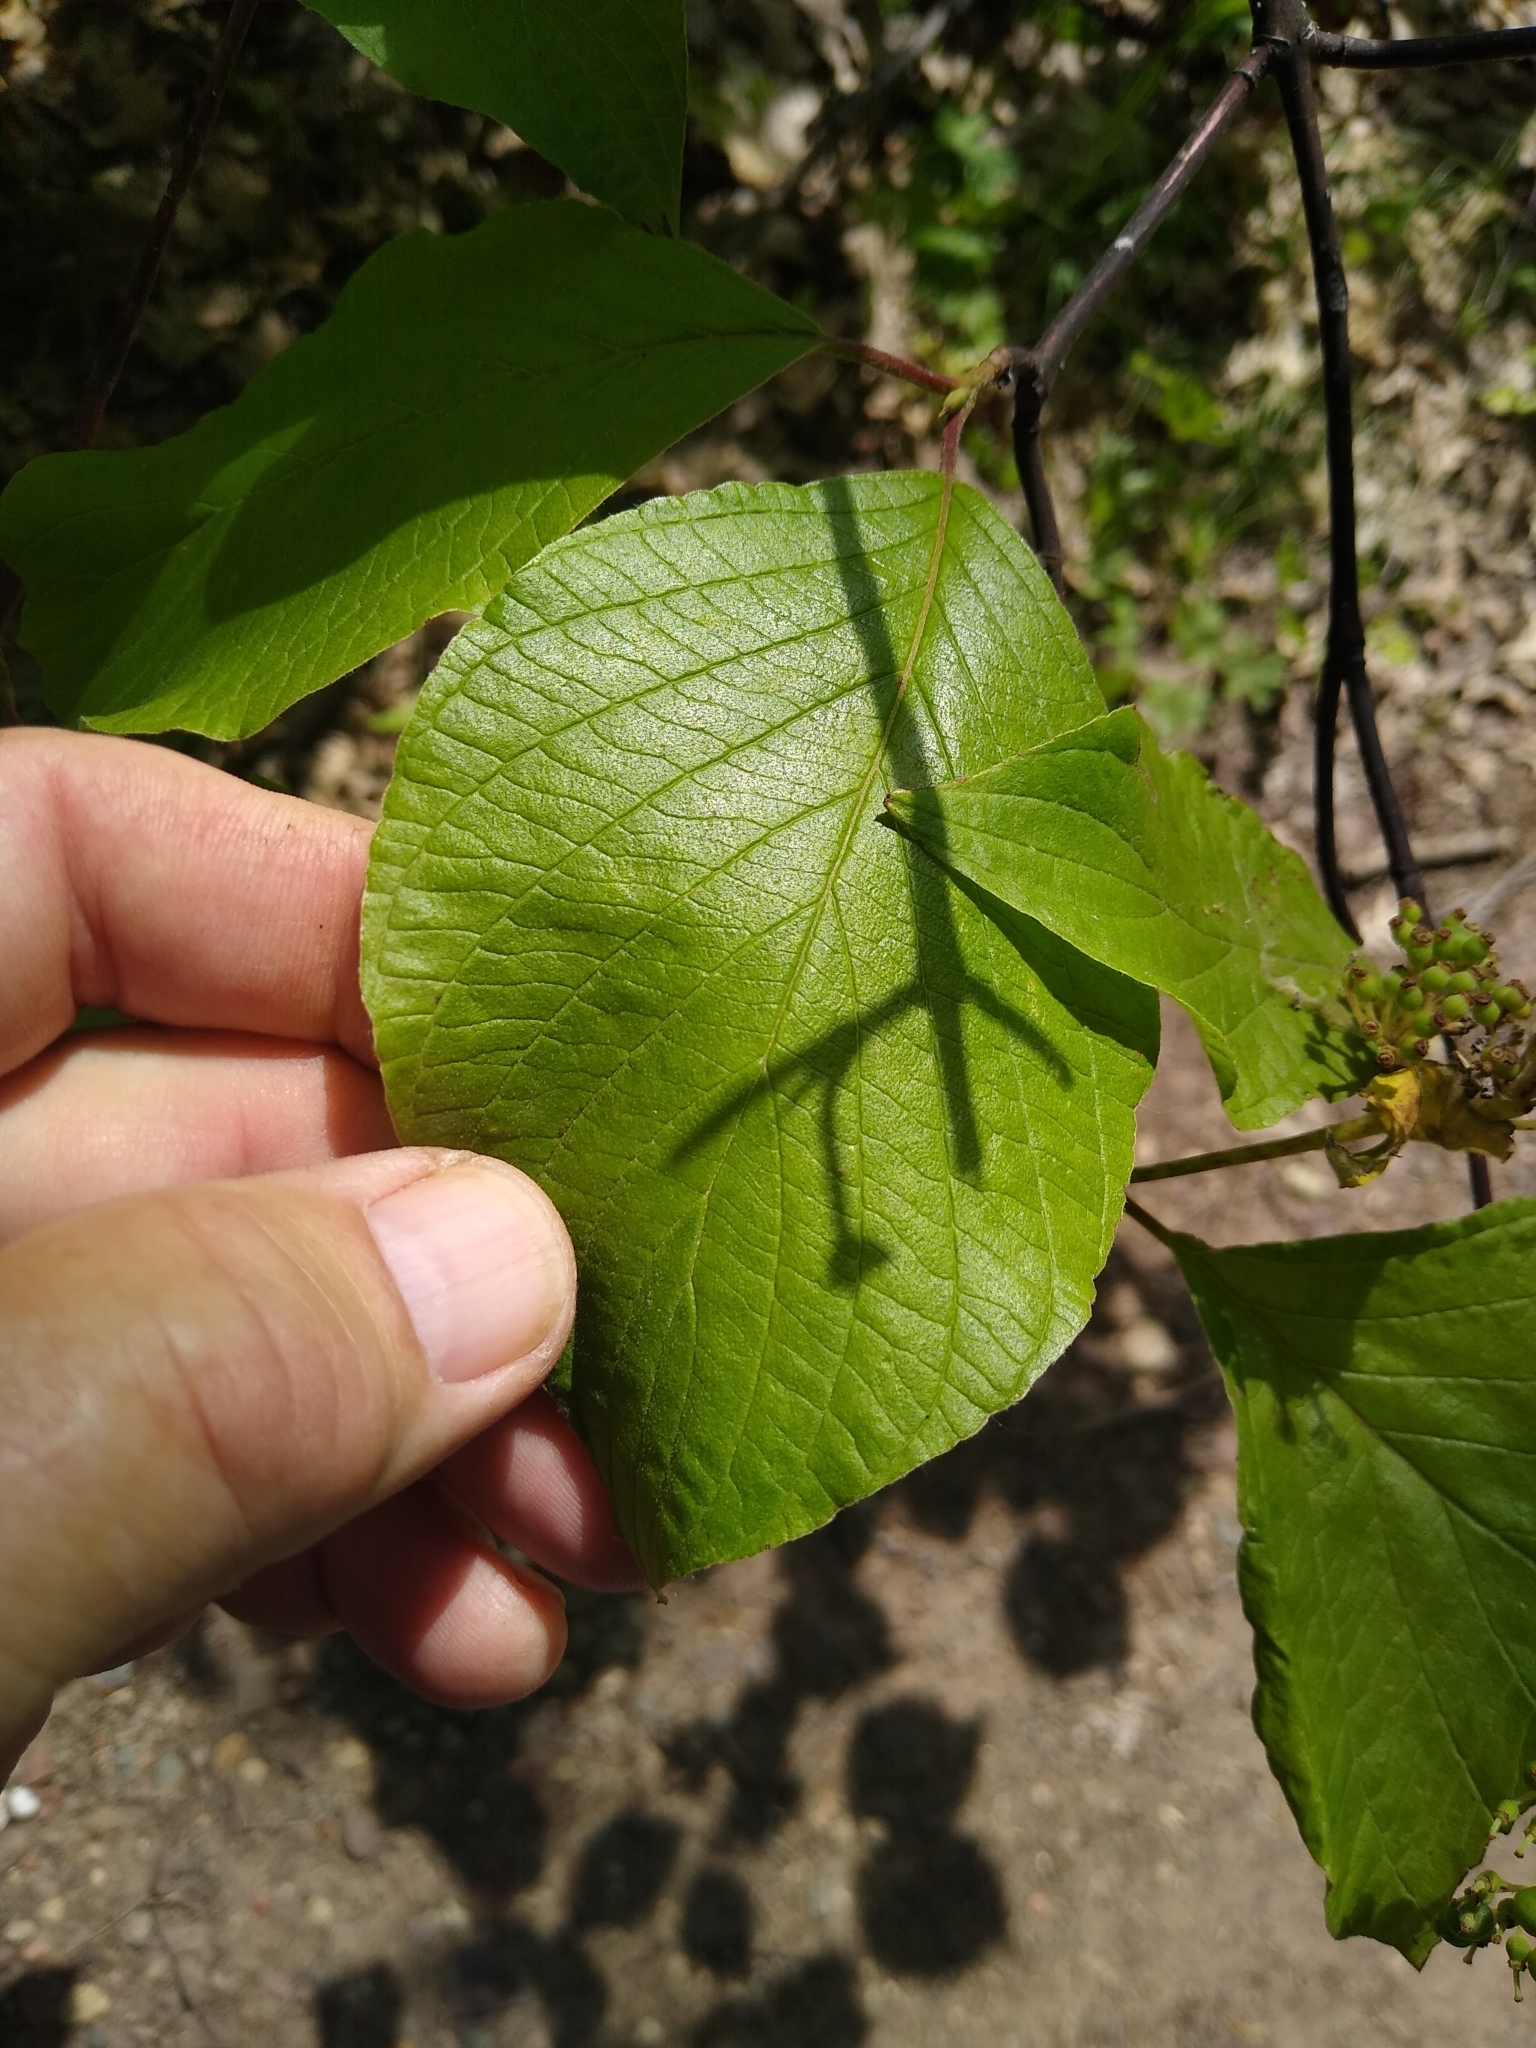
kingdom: Plantae
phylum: Tracheophyta
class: Magnoliopsida
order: Gentianales
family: Apocynaceae
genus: Asclepias
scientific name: Asclepias exaltata
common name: Poke milkweed
